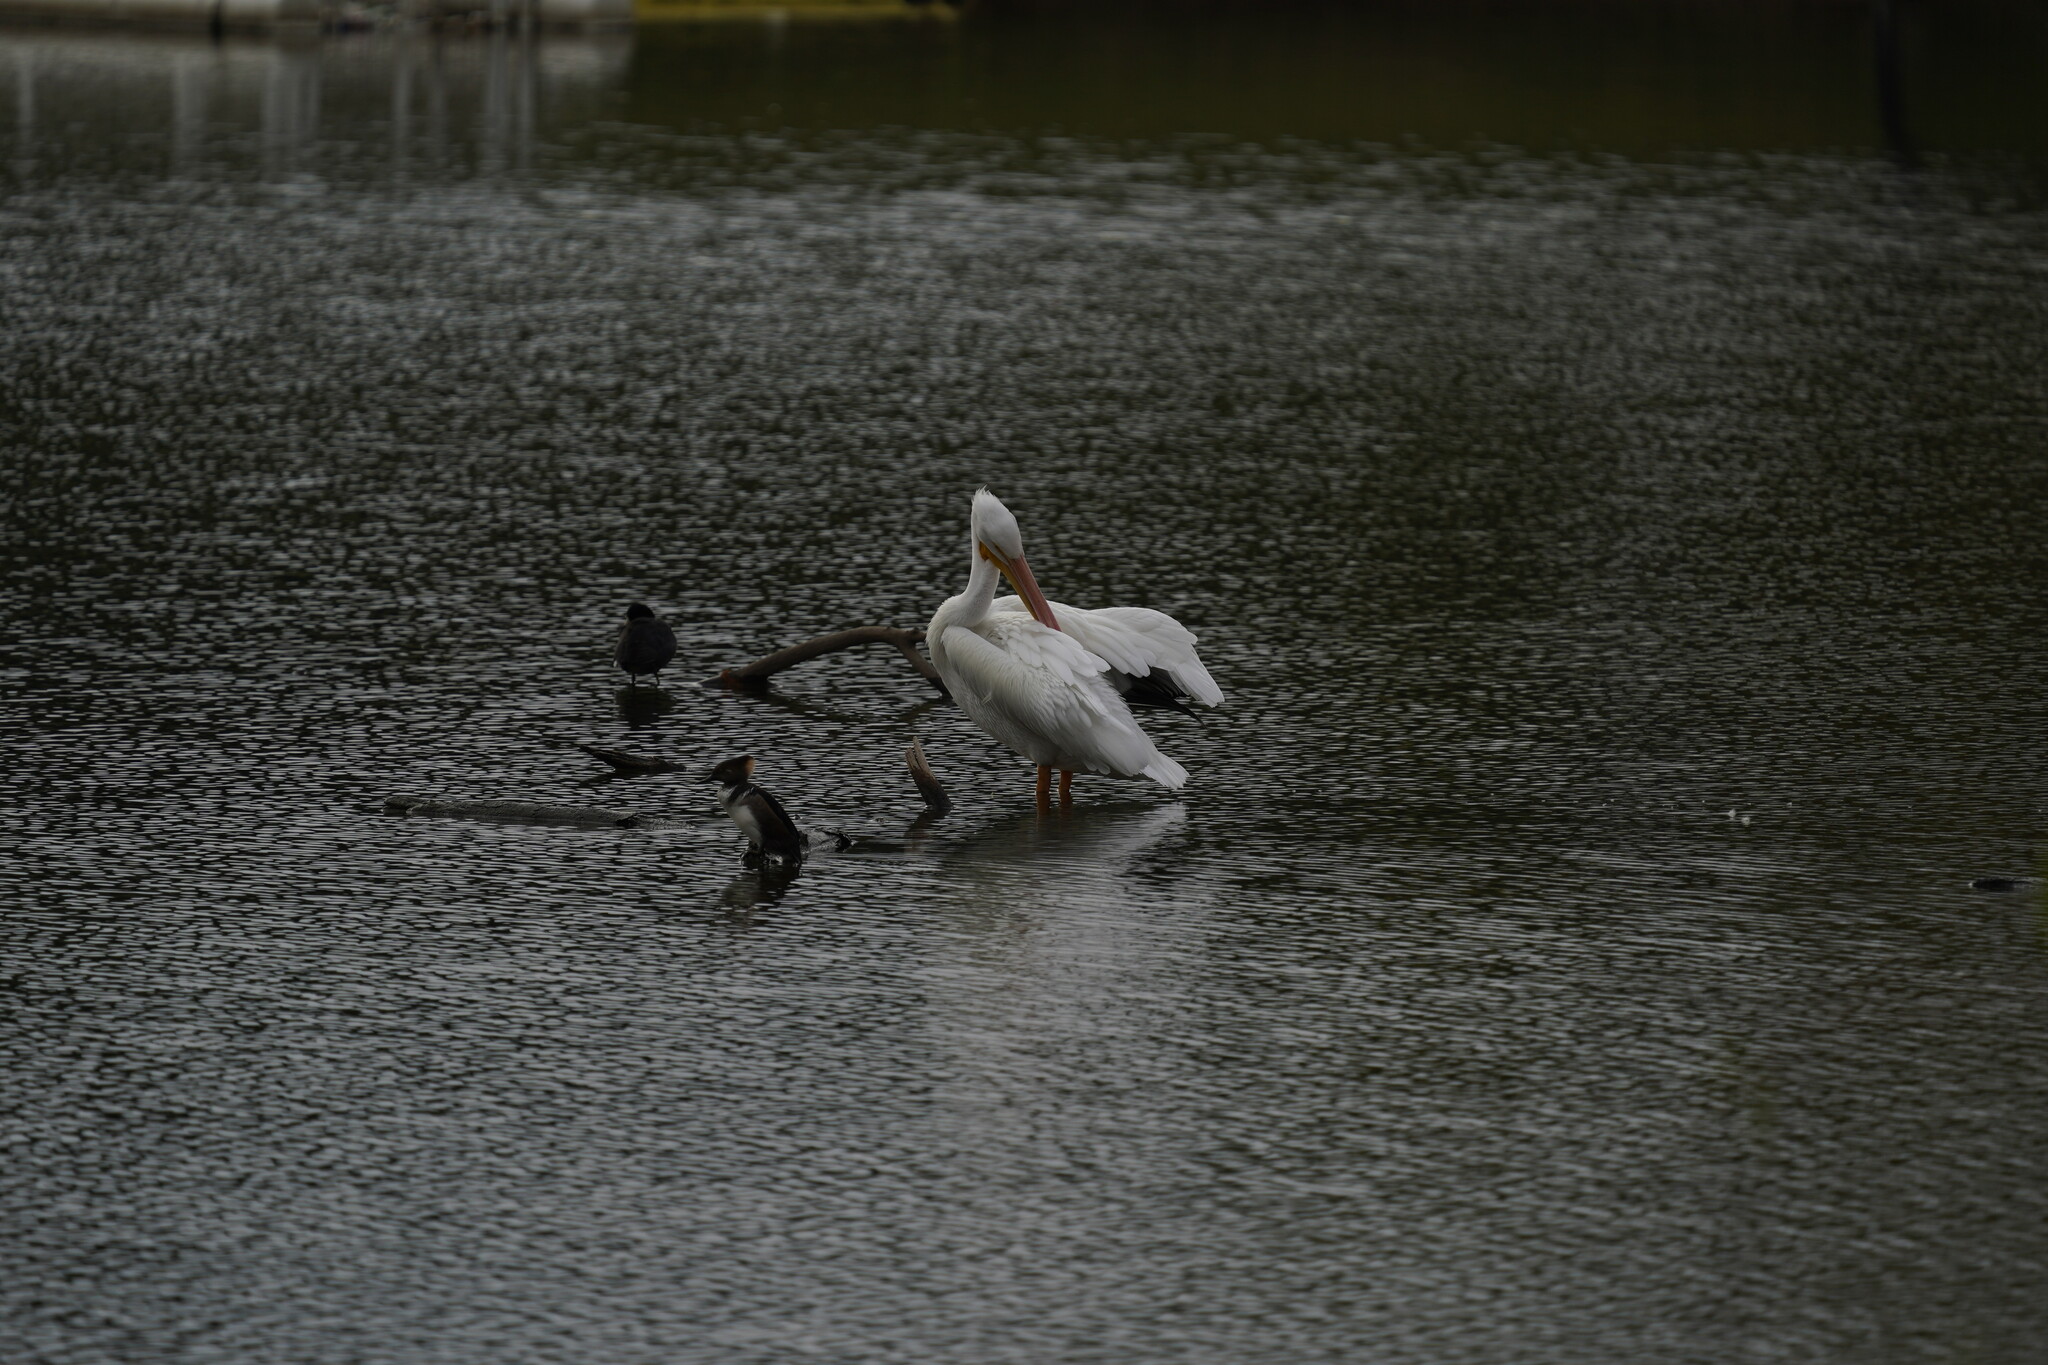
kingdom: Animalia
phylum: Chordata
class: Aves
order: Pelecaniformes
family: Pelecanidae
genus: Pelecanus
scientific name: Pelecanus erythrorhynchos
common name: American white pelican
